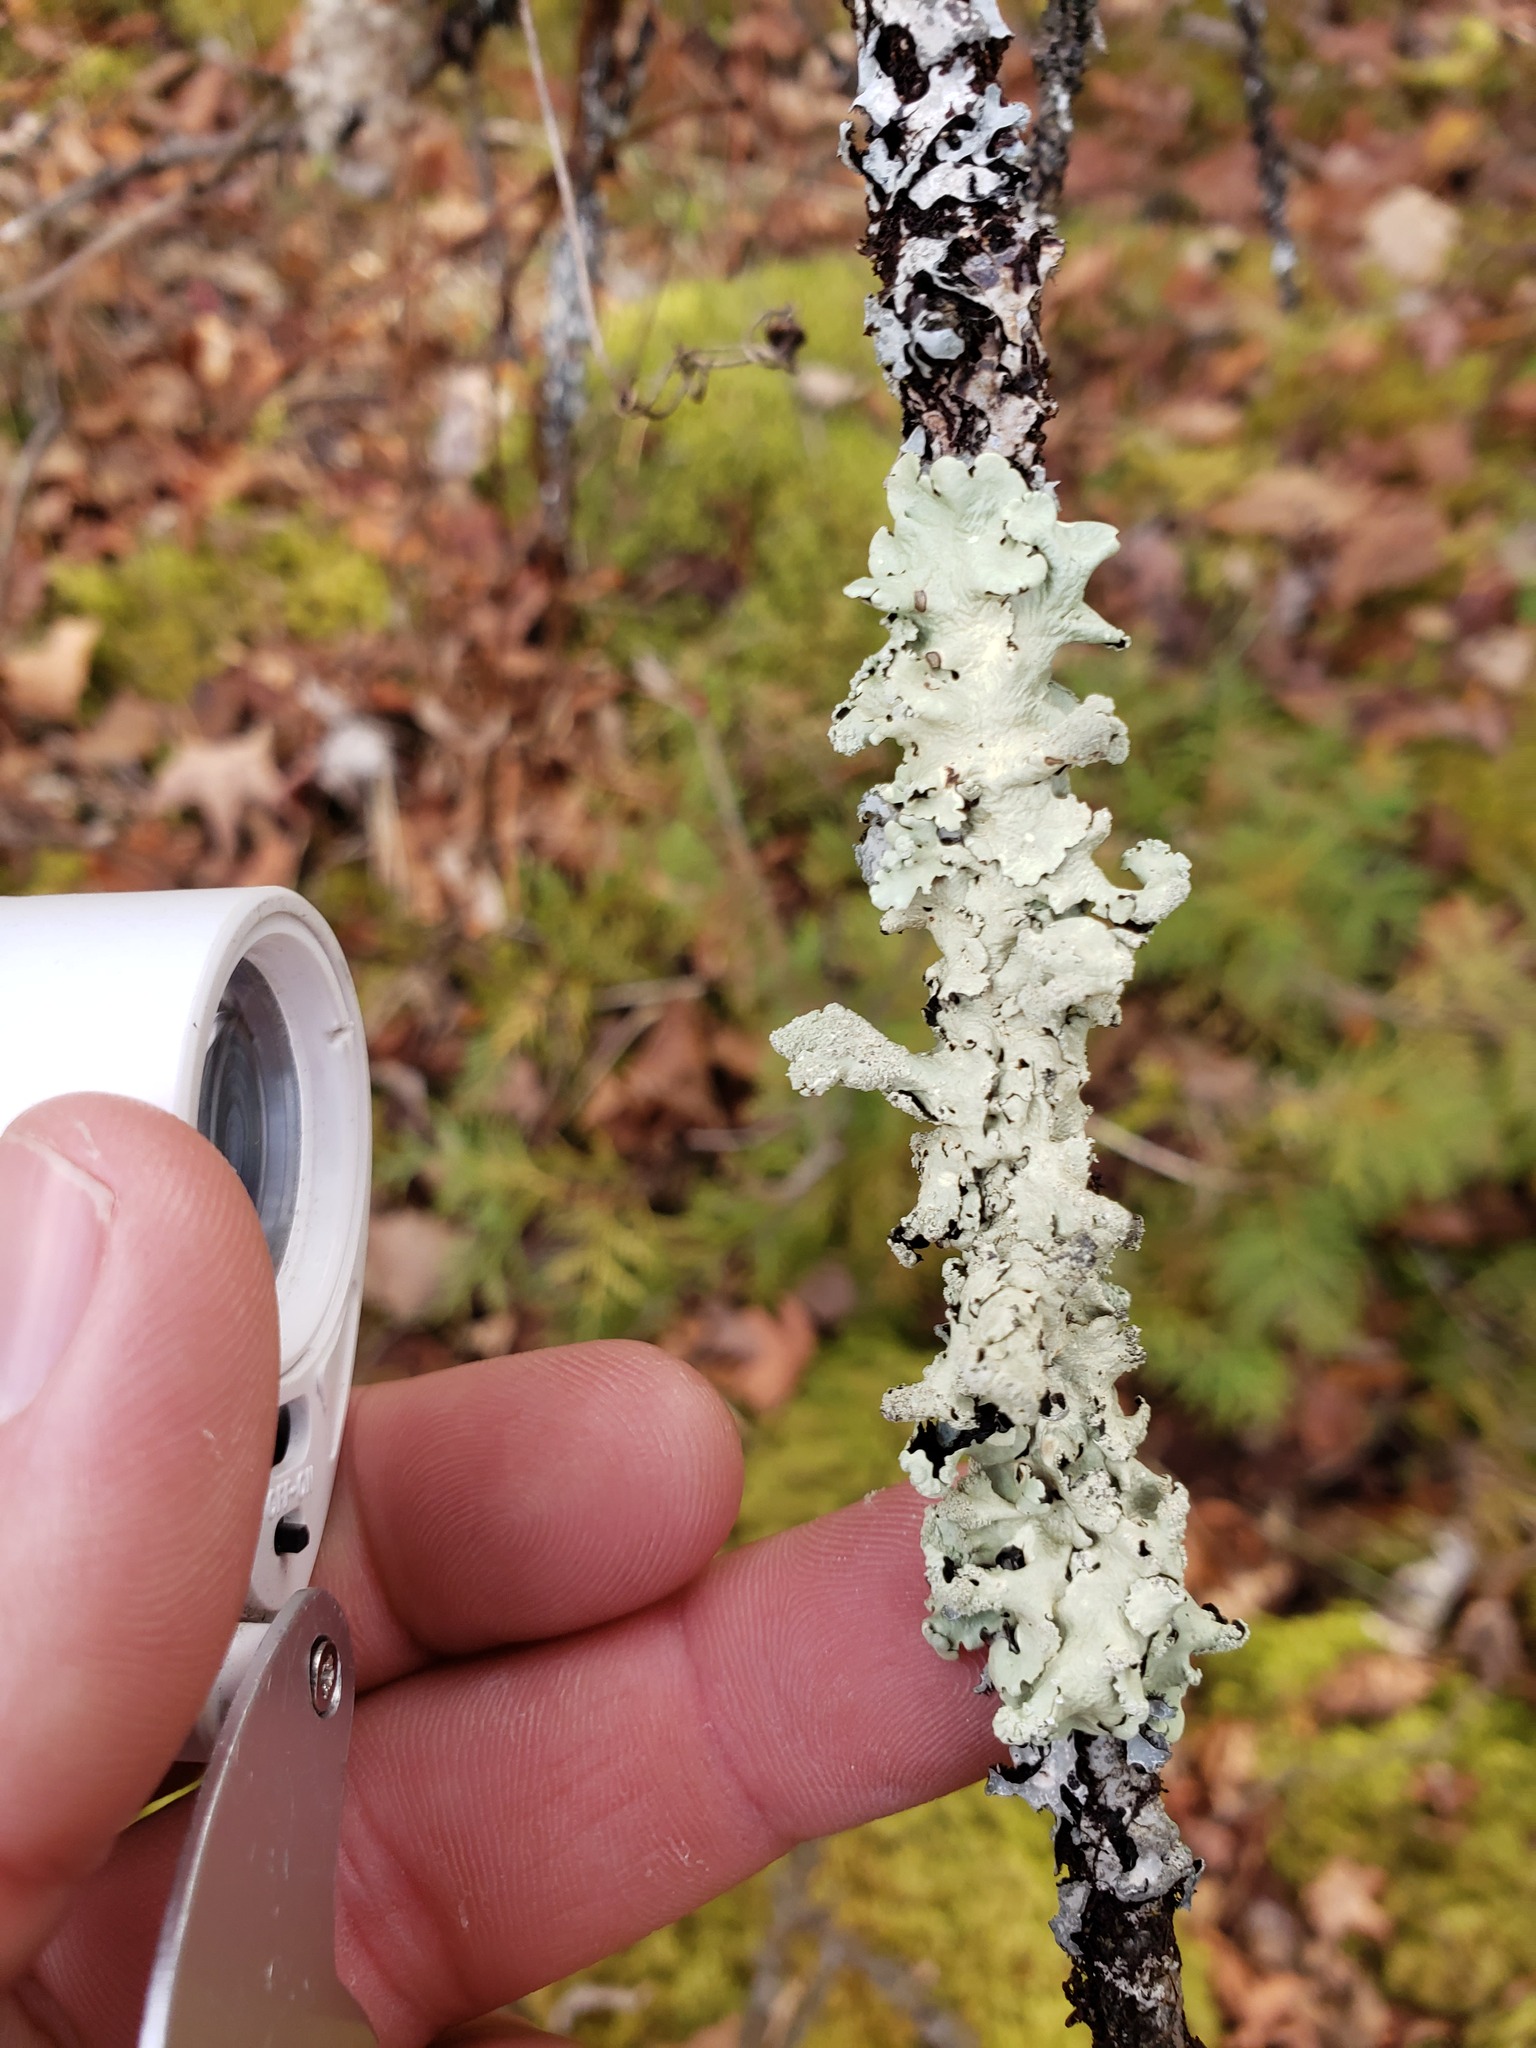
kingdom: Fungi
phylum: Ascomycota
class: Lecanoromycetes
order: Lecanorales
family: Parmeliaceae
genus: Flavoparmelia
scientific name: Flavoparmelia caperata
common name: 40-mile per hour lichen
